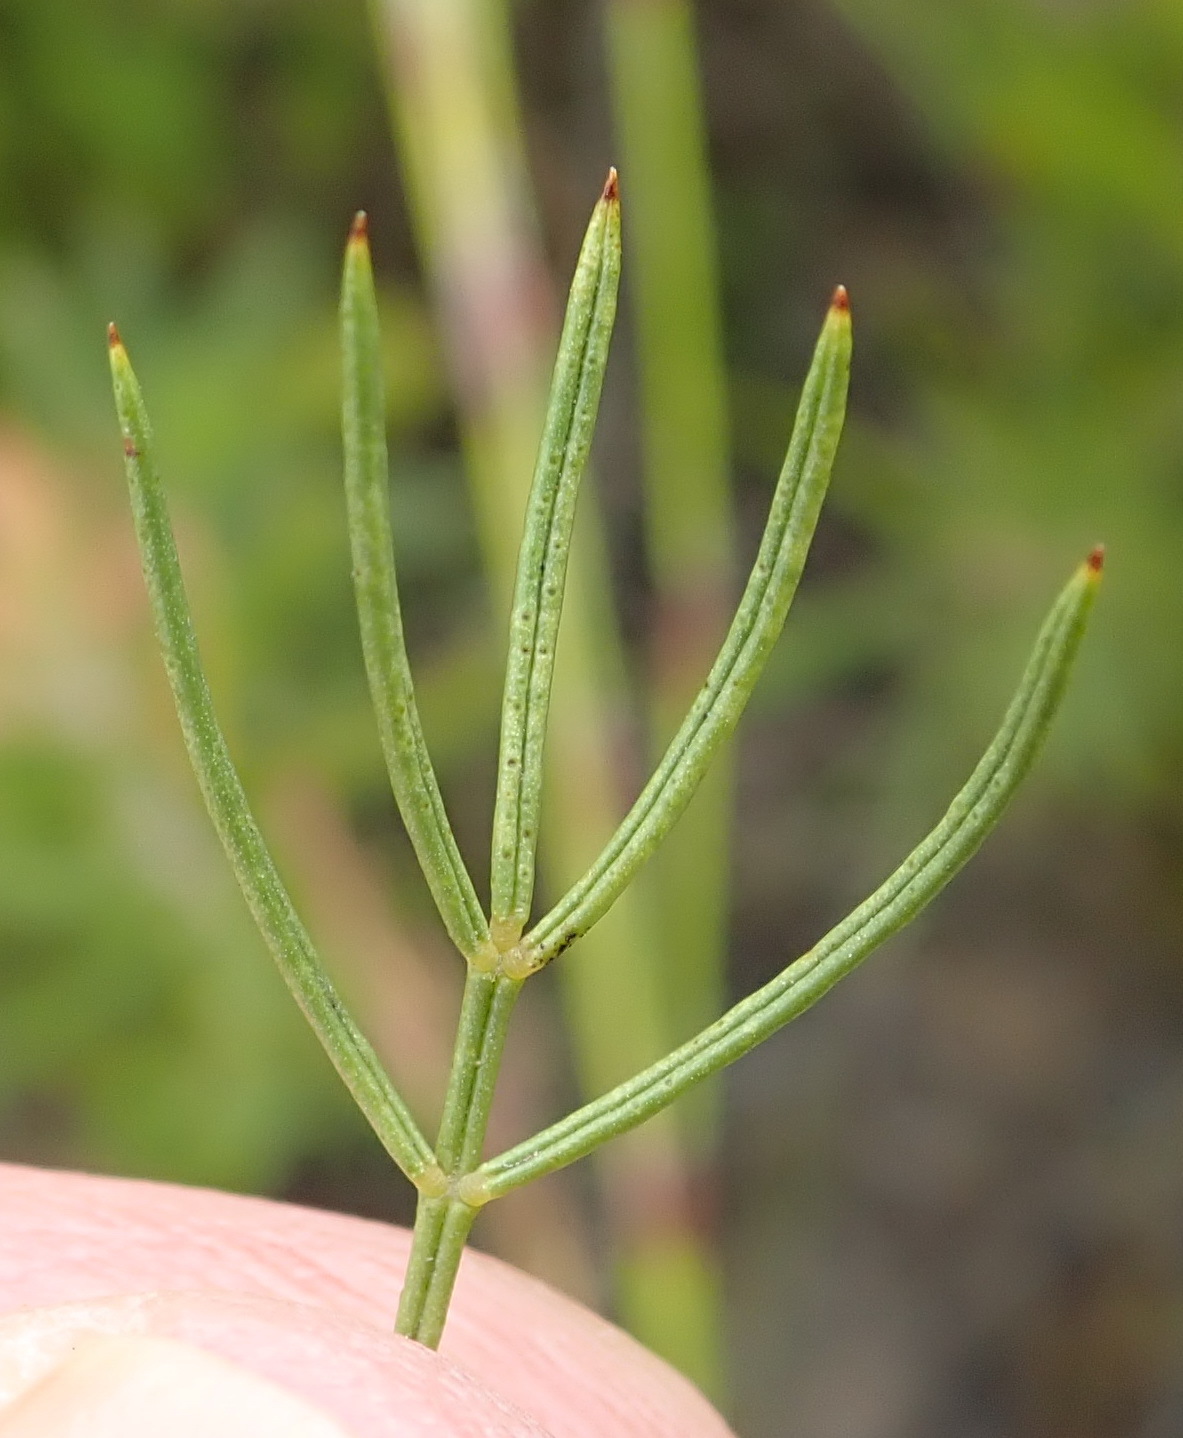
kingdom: Plantae
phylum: Tracheophyta
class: Magnoliopsida
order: Fabales
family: Fabaceae
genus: Psoralea
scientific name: Psoralea azuroides
